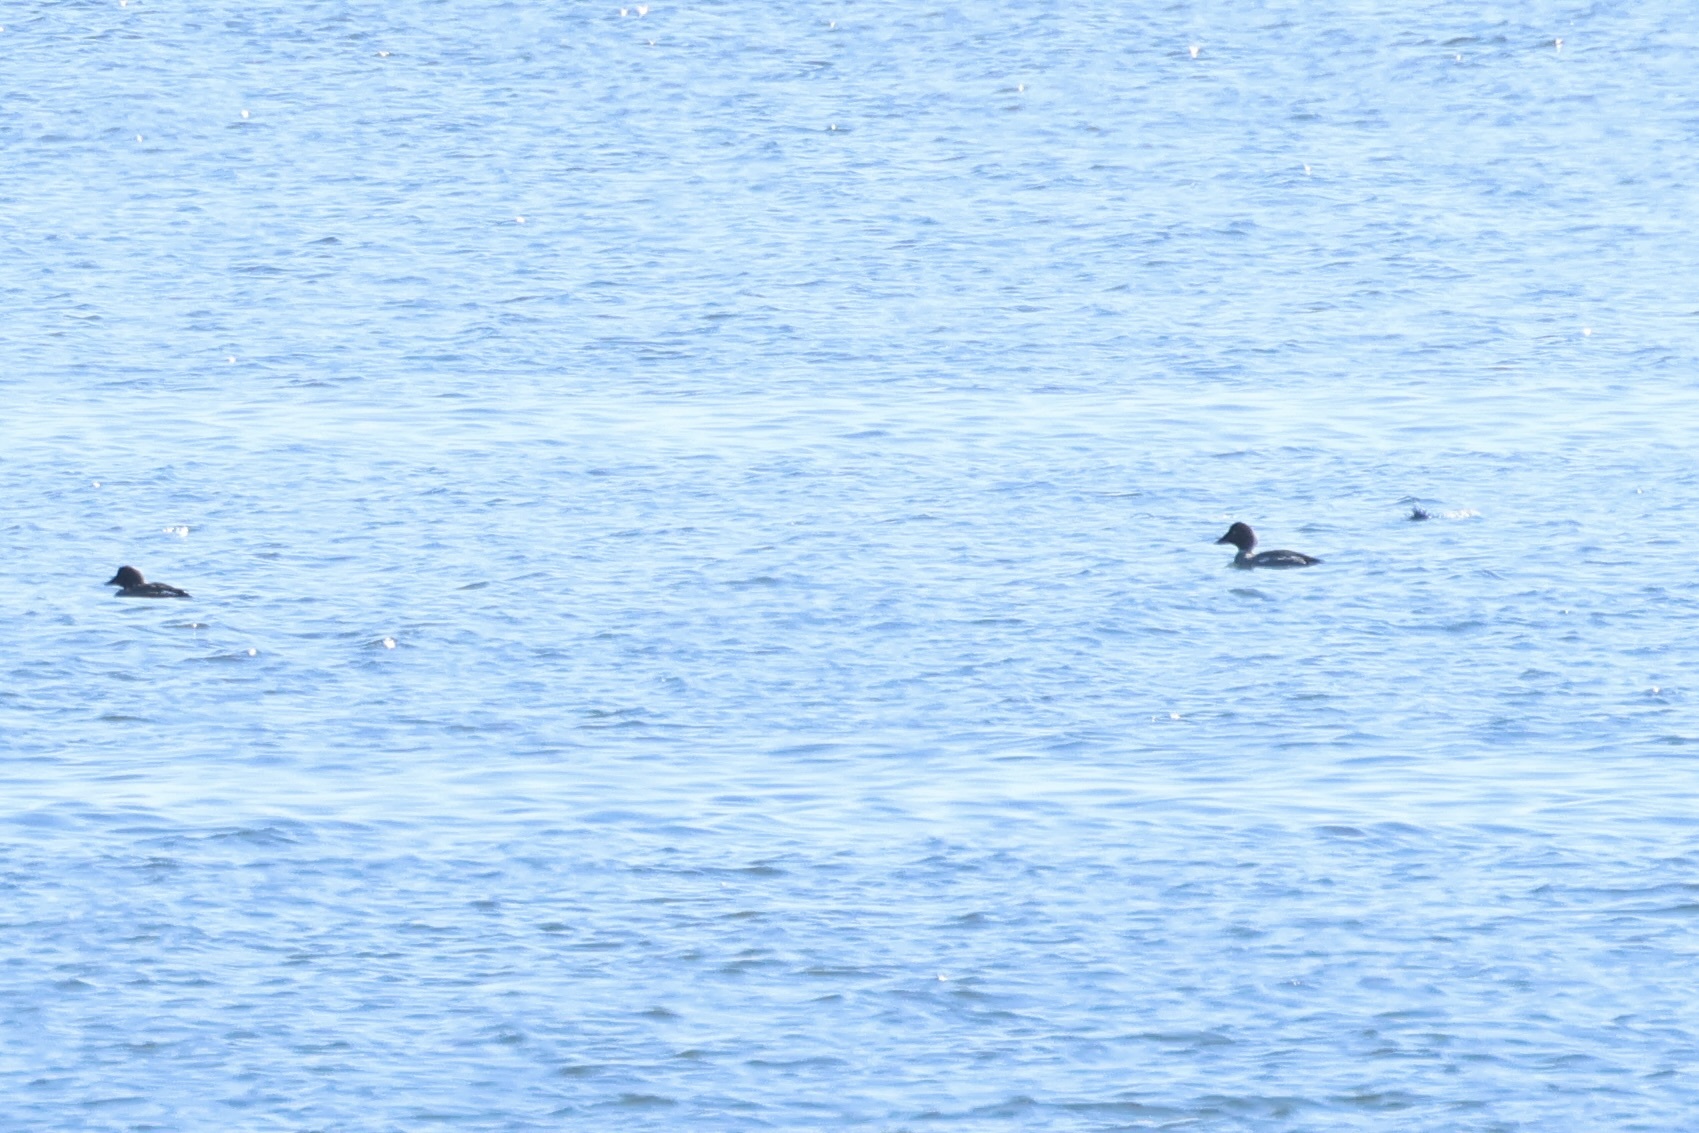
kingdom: Animalia
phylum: Chordata
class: Aves
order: Anseriformes
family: Anatidae
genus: Bucephala
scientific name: Bucephala clangula
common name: Common goldeneye
